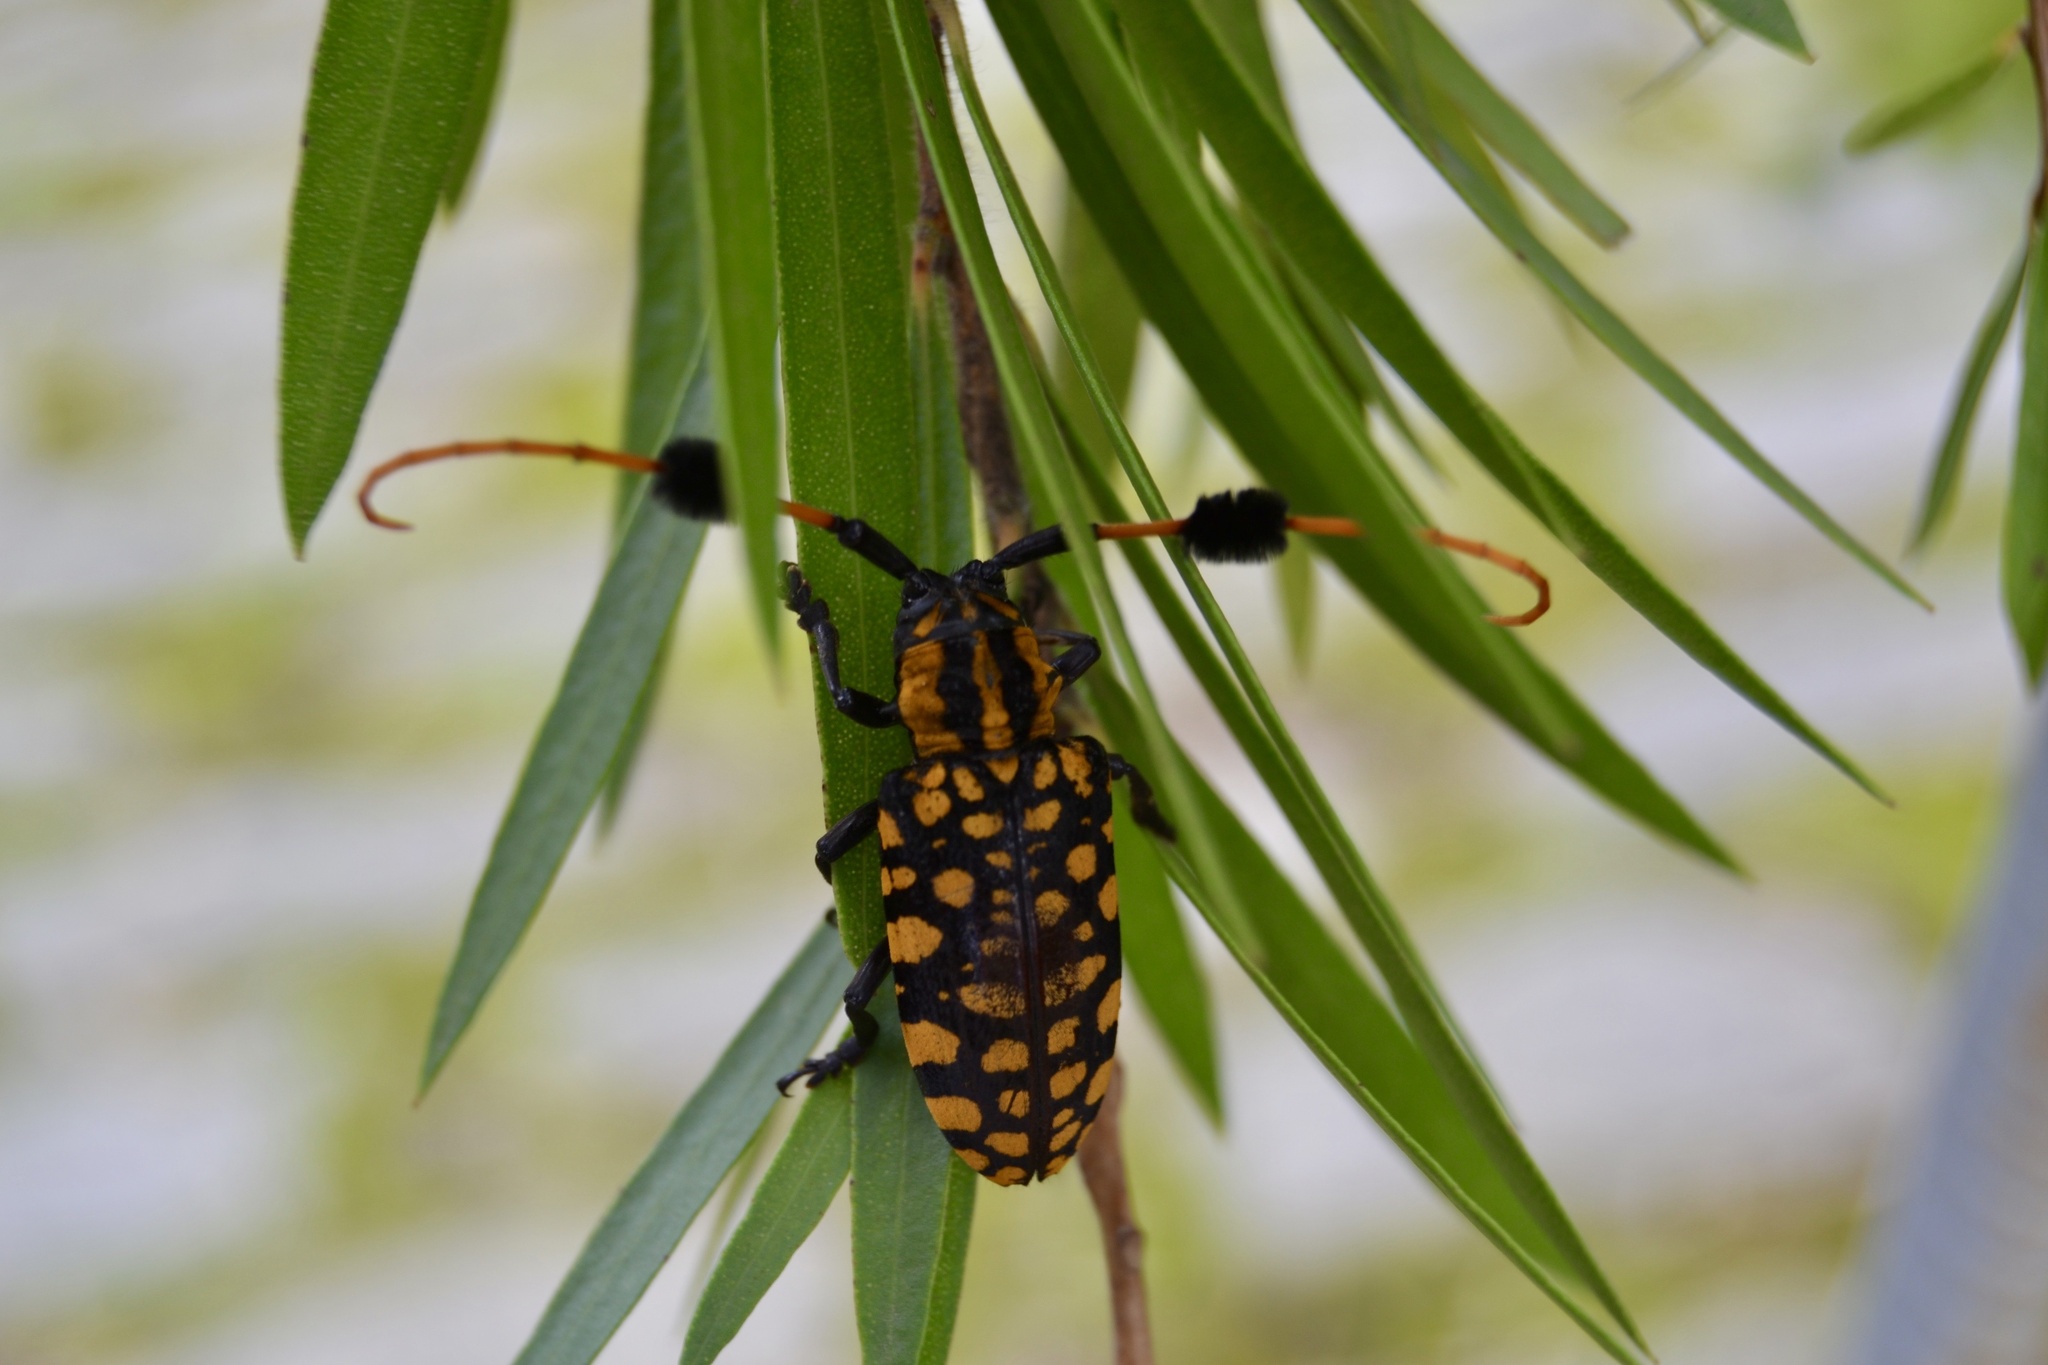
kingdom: Animalia
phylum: Arthropoda
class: Insecta
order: Coleoptera
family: Cerambycidae
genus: Aristobia
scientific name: Aristobia approximator
